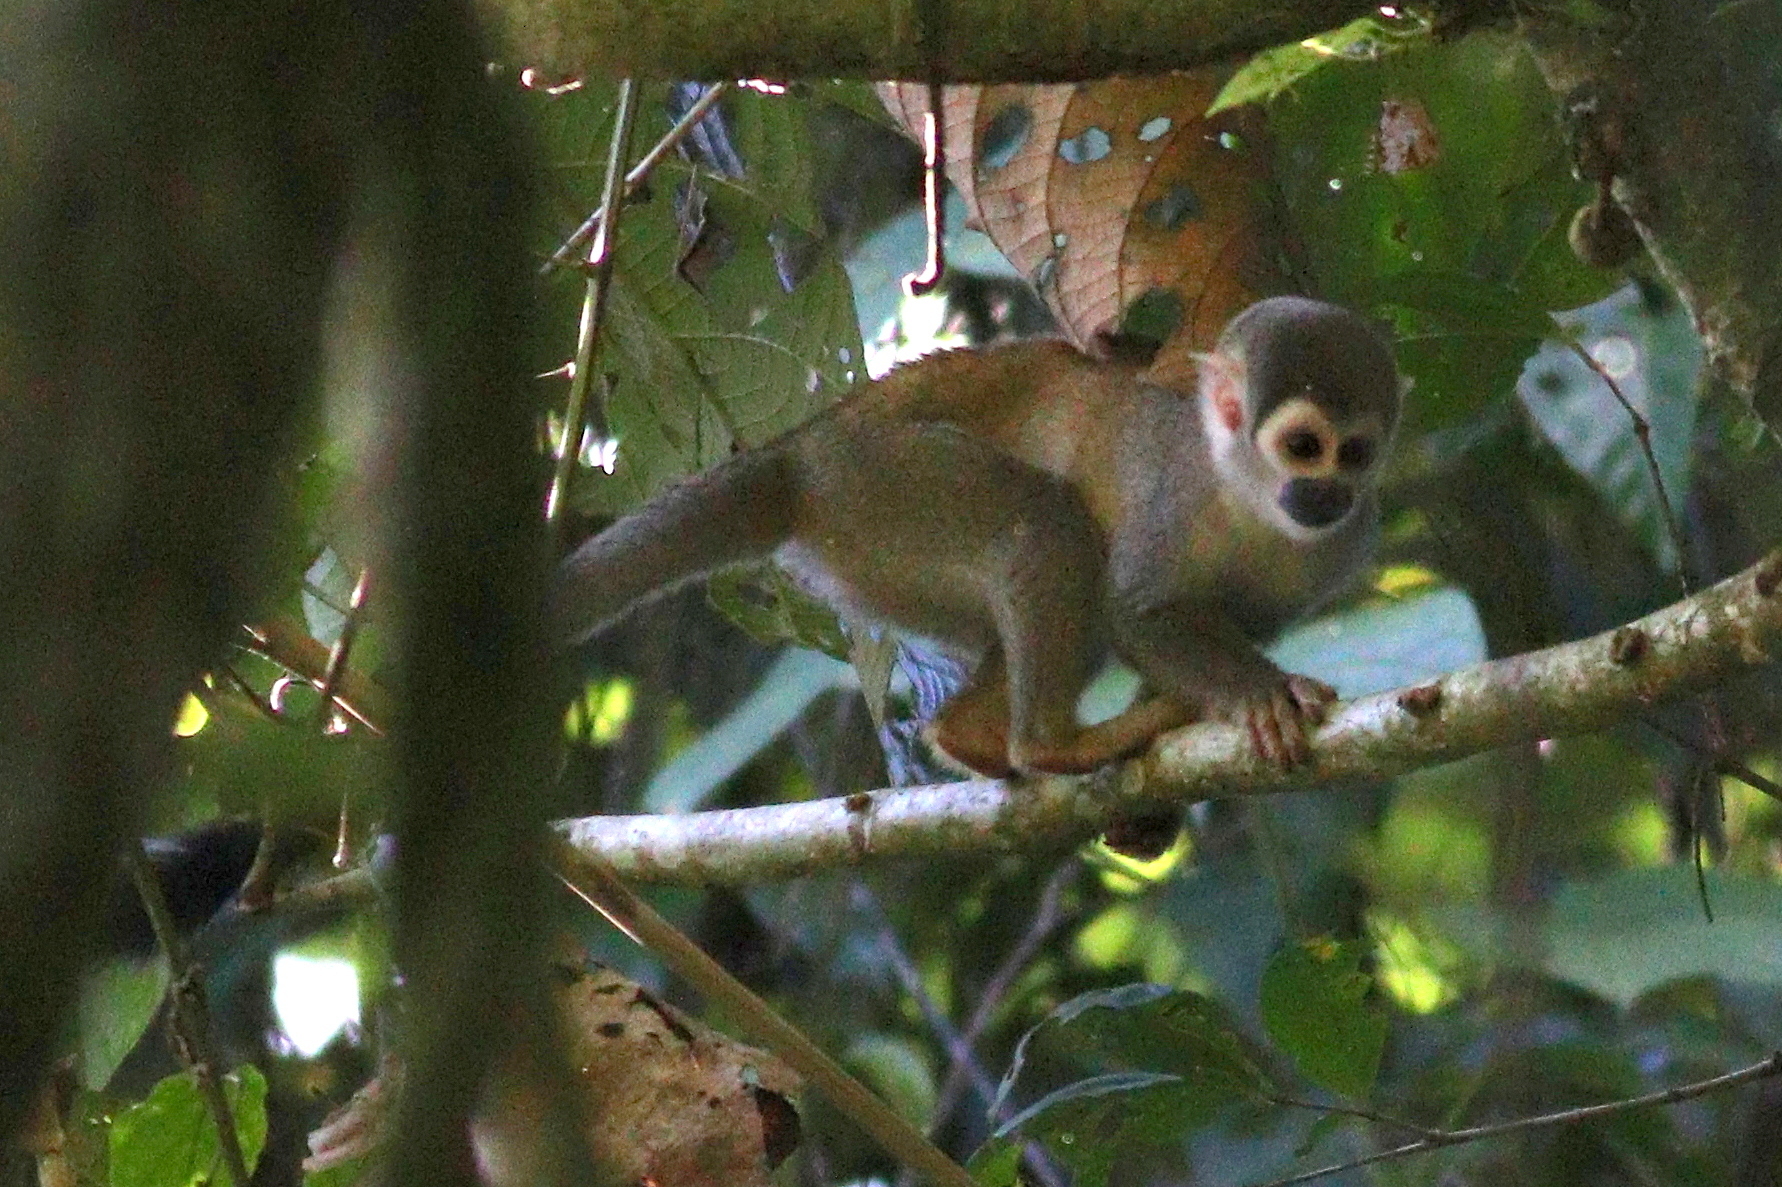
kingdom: Animalia
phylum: Chordata
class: Mammalia
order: Primates
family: Cebidae
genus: Saimiri
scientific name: Saimiri cassiquiarensis
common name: Humboldt’s squirrel monkey
